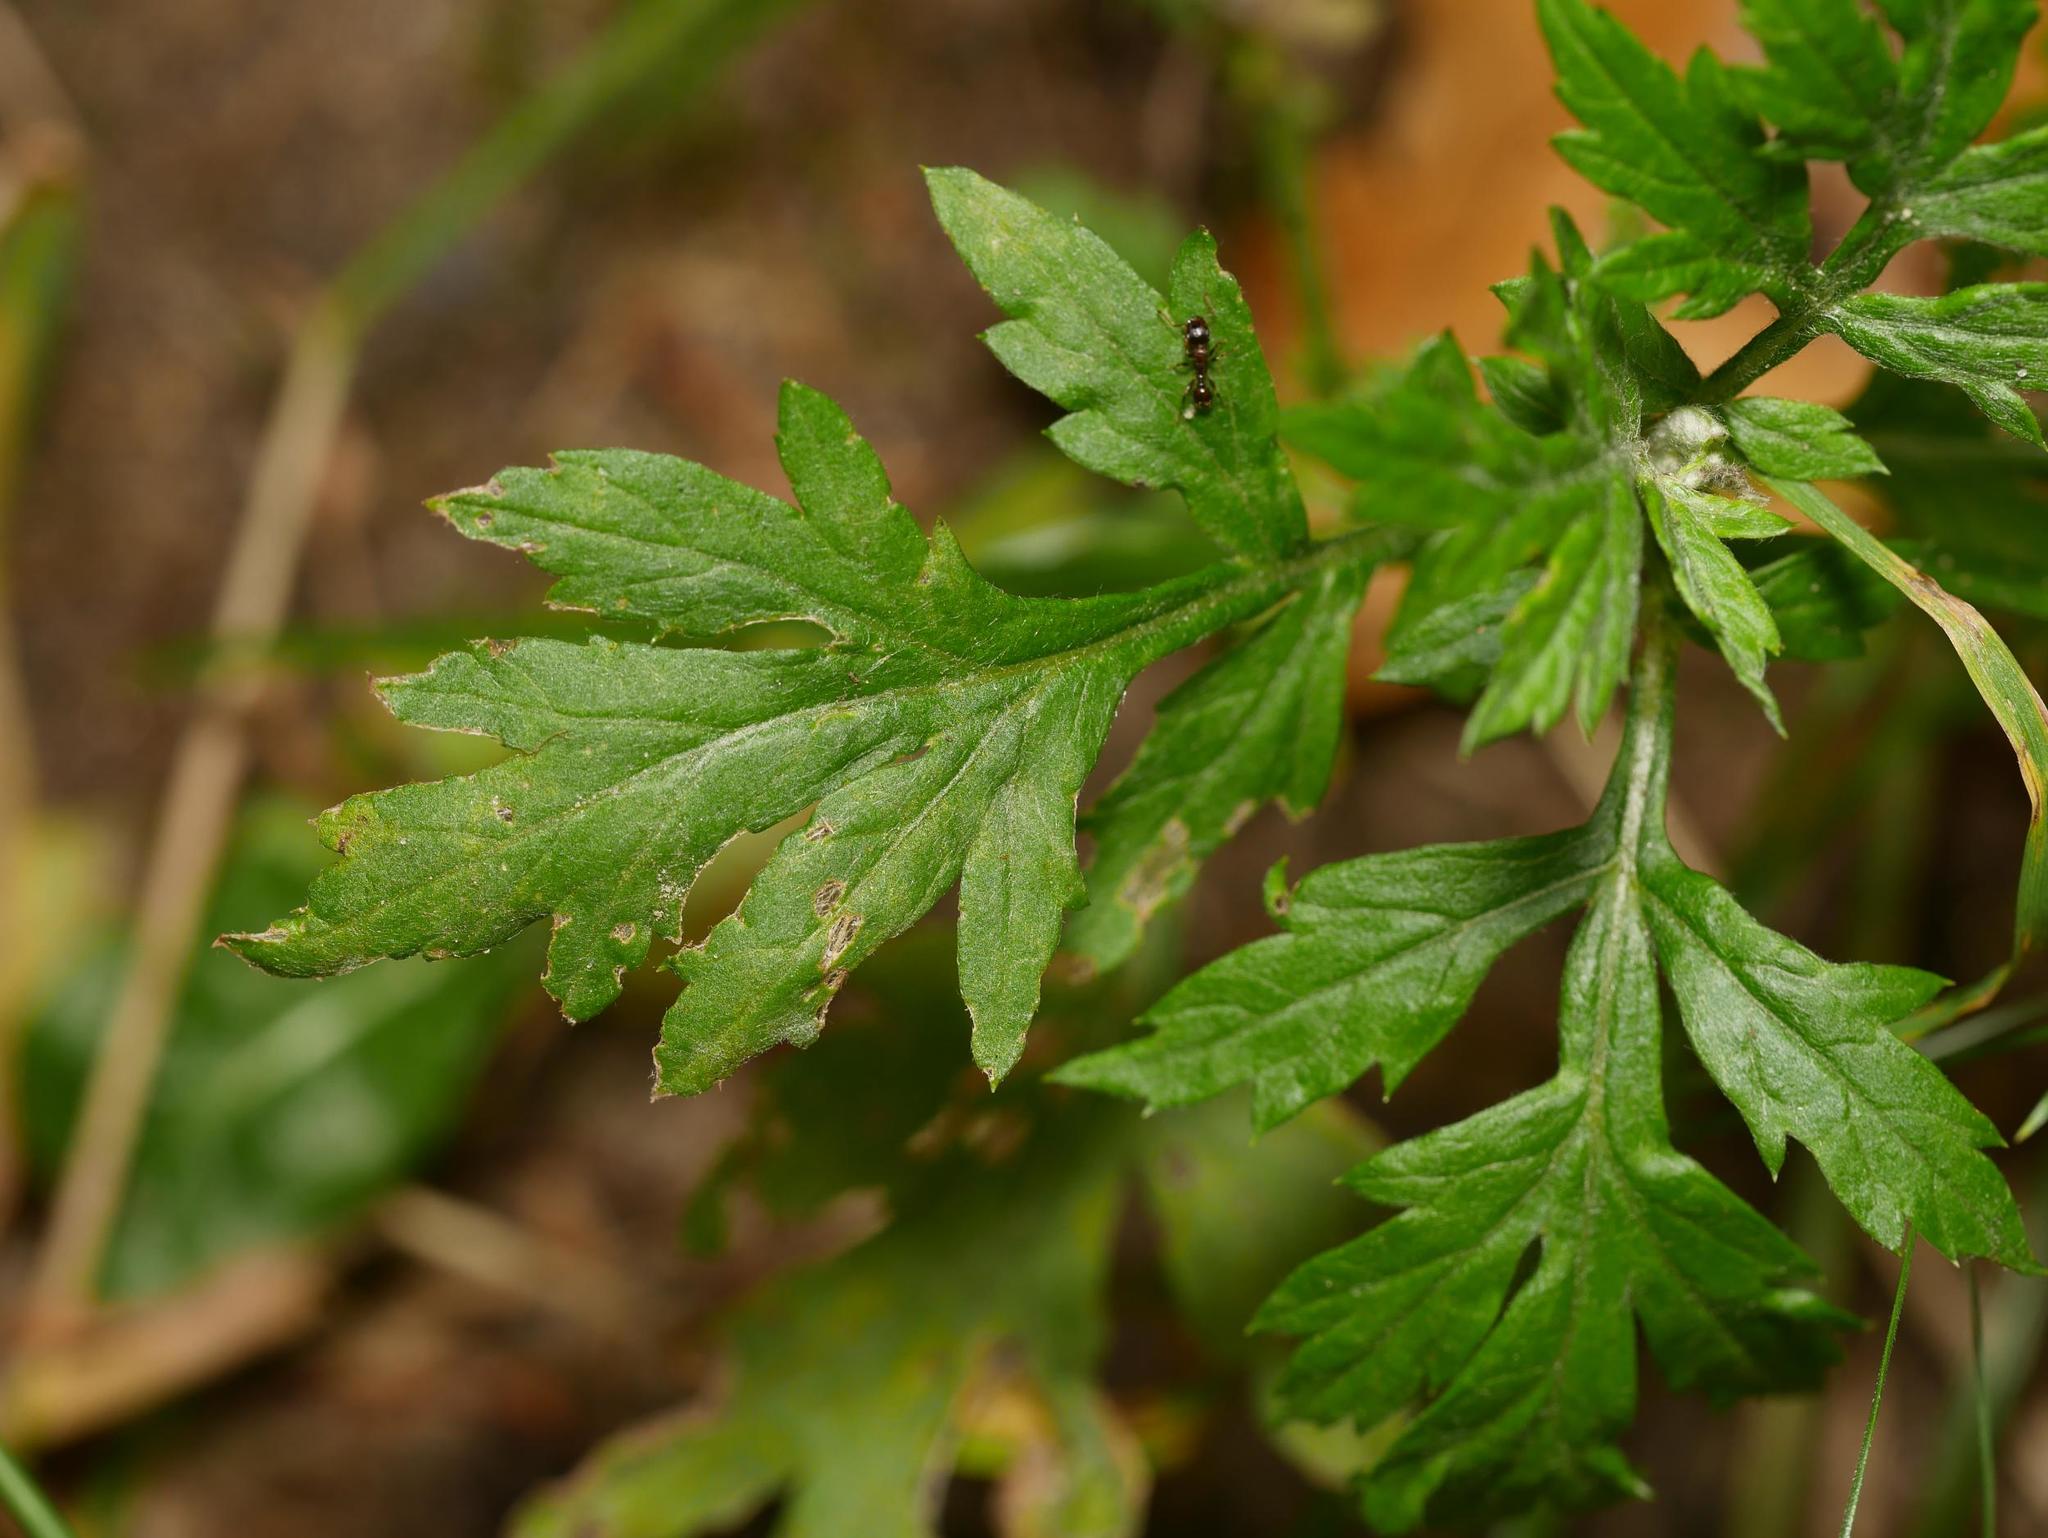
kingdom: Plantae
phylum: Tracheophyta
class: Magnoliopsida
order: Asterales
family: Asteraceae
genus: Artemisia
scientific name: Artemisia vulgaris
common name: Mugwort
